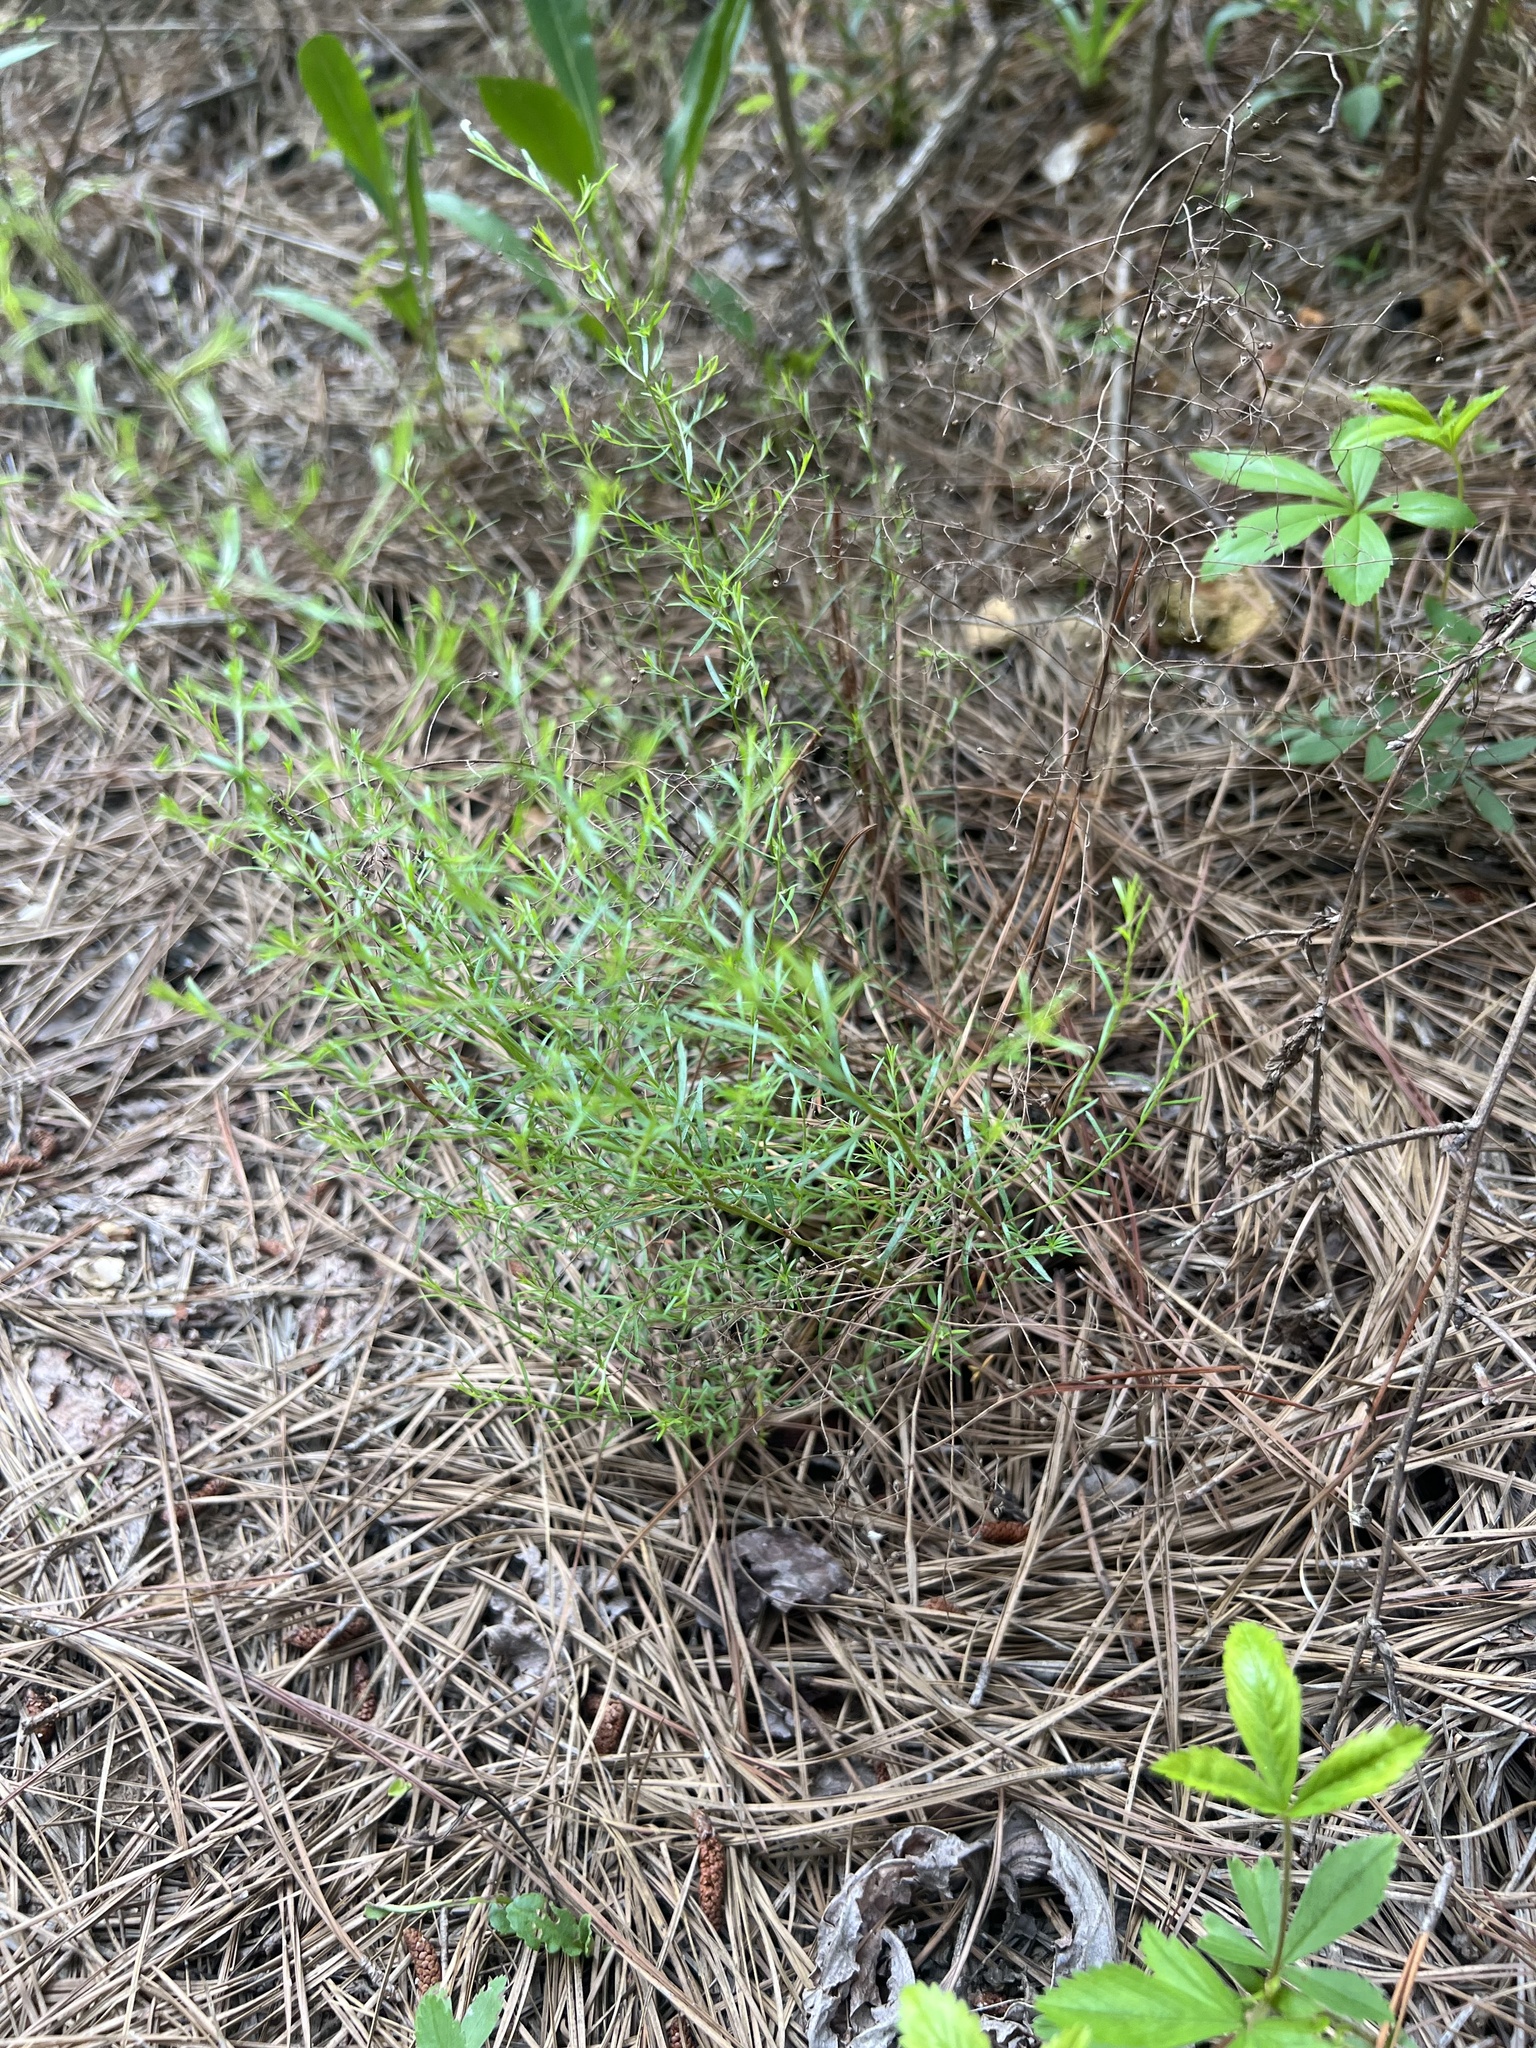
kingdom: Plantae
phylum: Tracheophyta
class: Magnoliopsida
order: Malvales
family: Cistaceae
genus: Lechea
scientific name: Lechea tenuifolia
